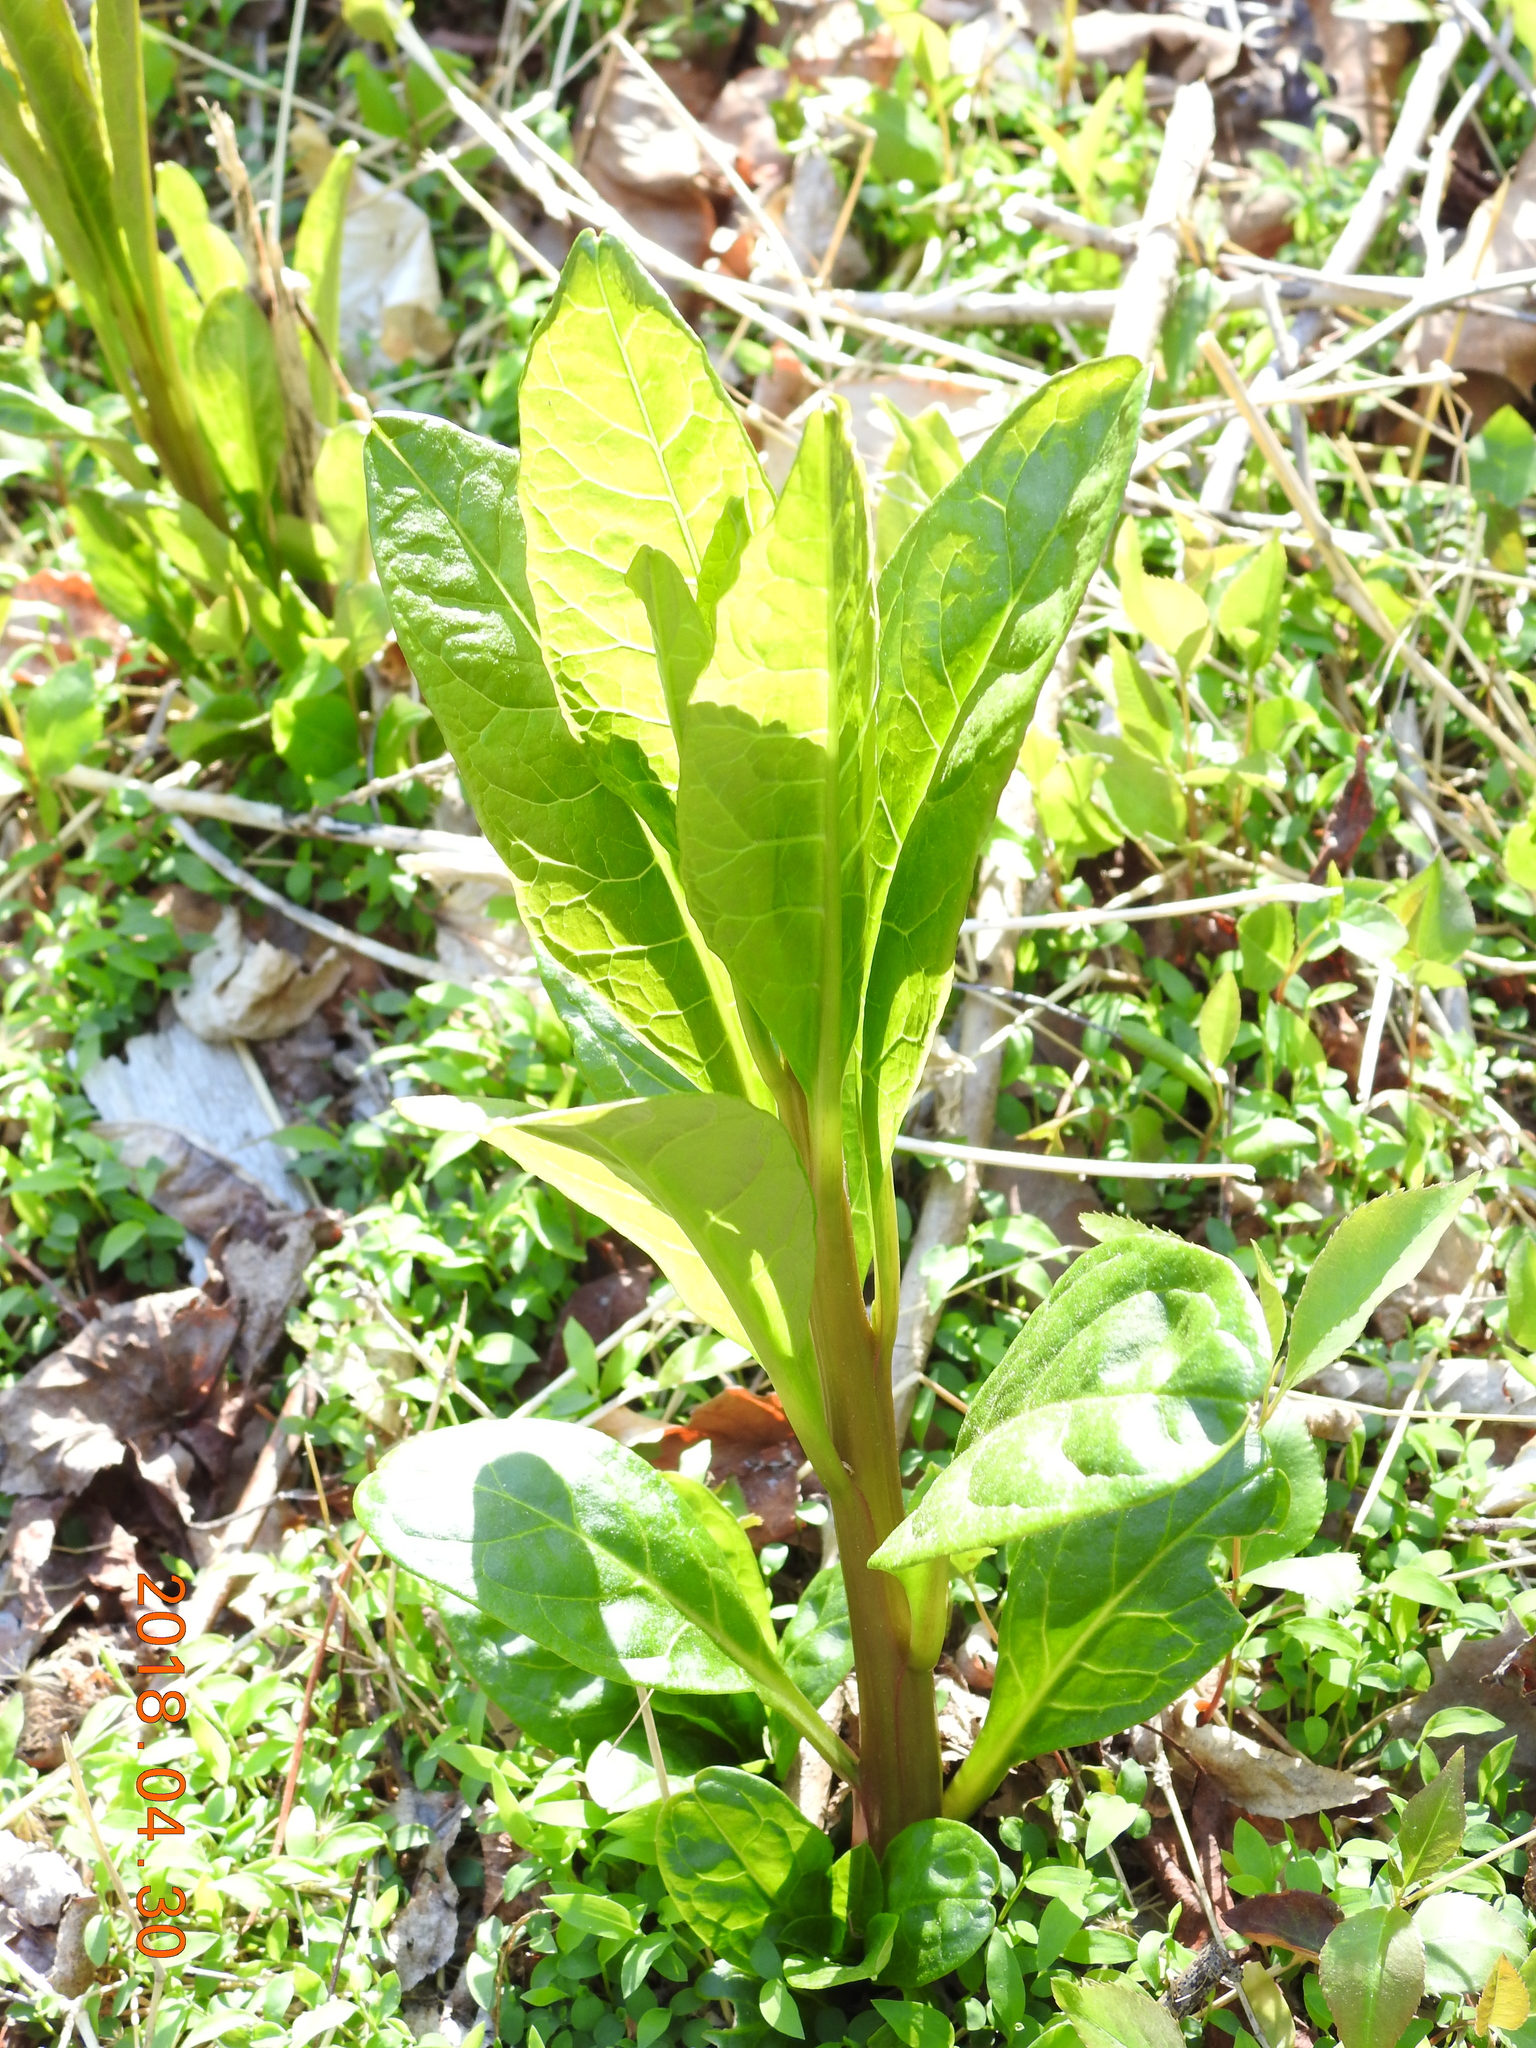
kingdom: Plantae
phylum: Tracheophyta
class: Magnoliopsida
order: Caryophyllales
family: Phytolaccaceae
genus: Phytolacca
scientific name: Phytolacca americana
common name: American pokeweed
